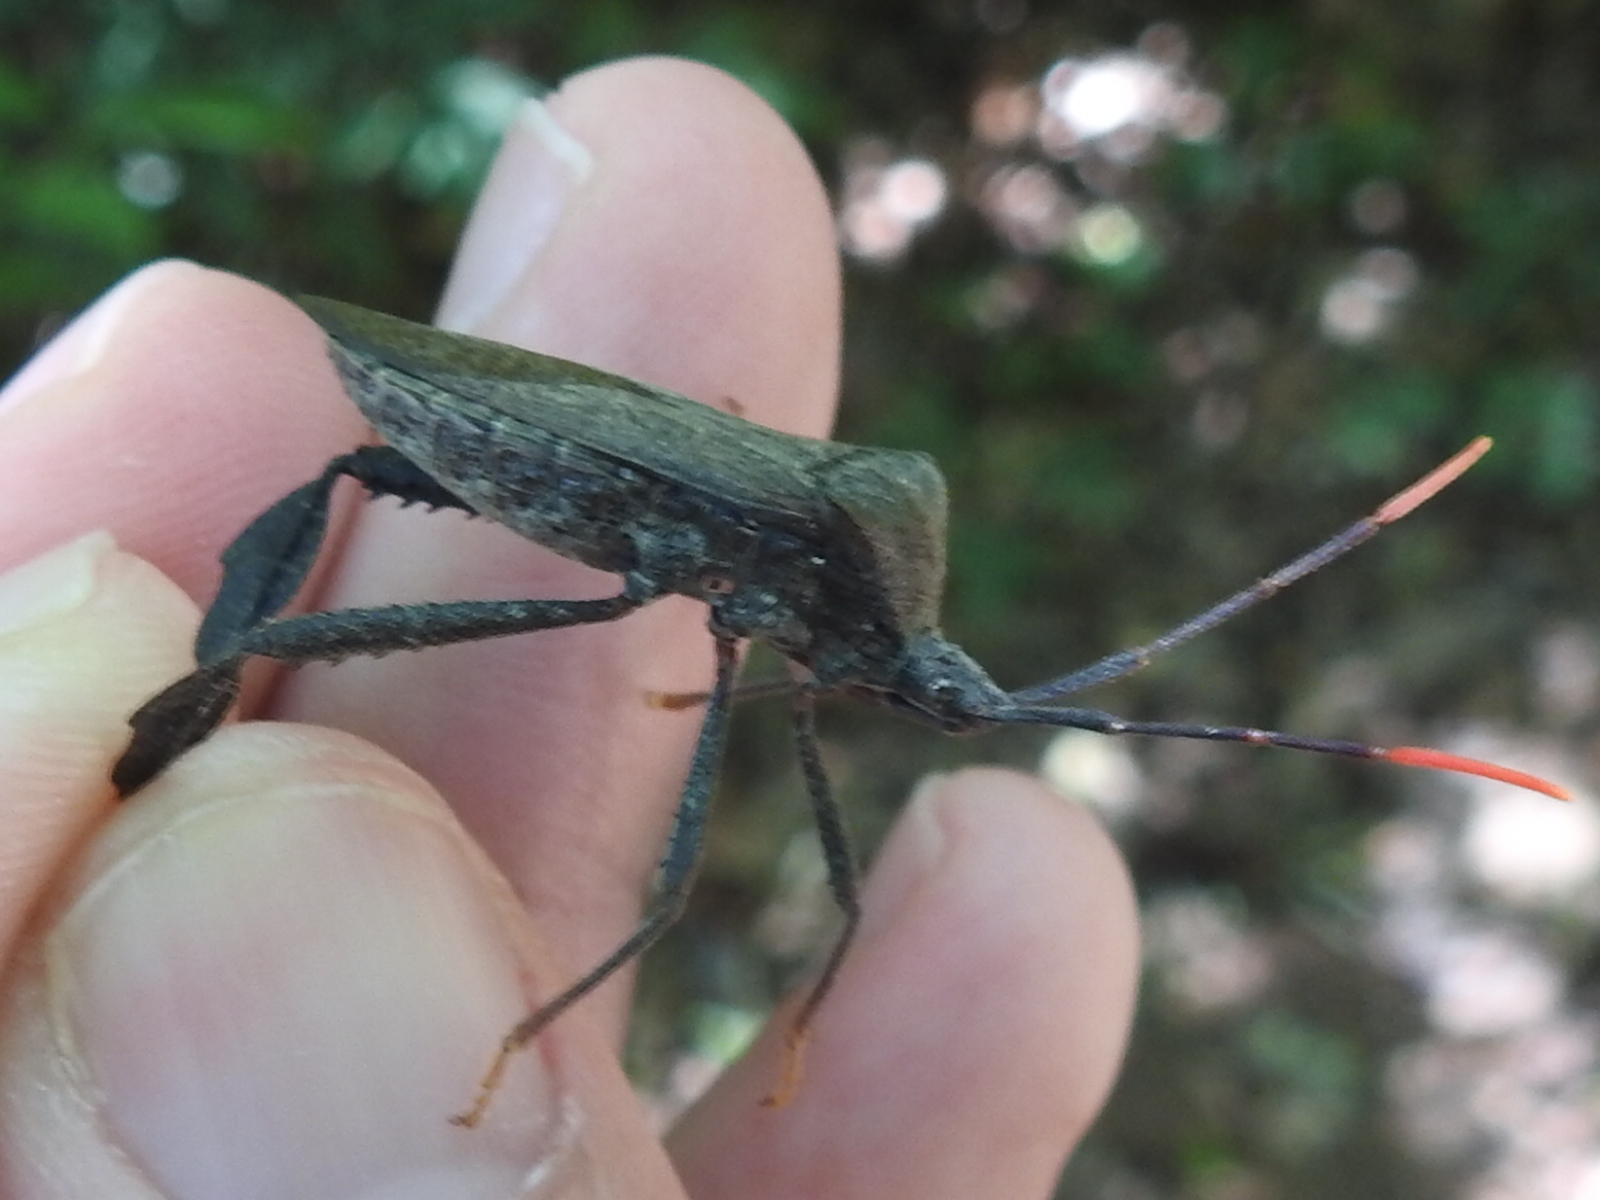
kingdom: Animalia
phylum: Arthropoda
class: Insecta
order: Hemiptera
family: Coreidae
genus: Acanthocephala
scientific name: Acanthocephala terminalis
